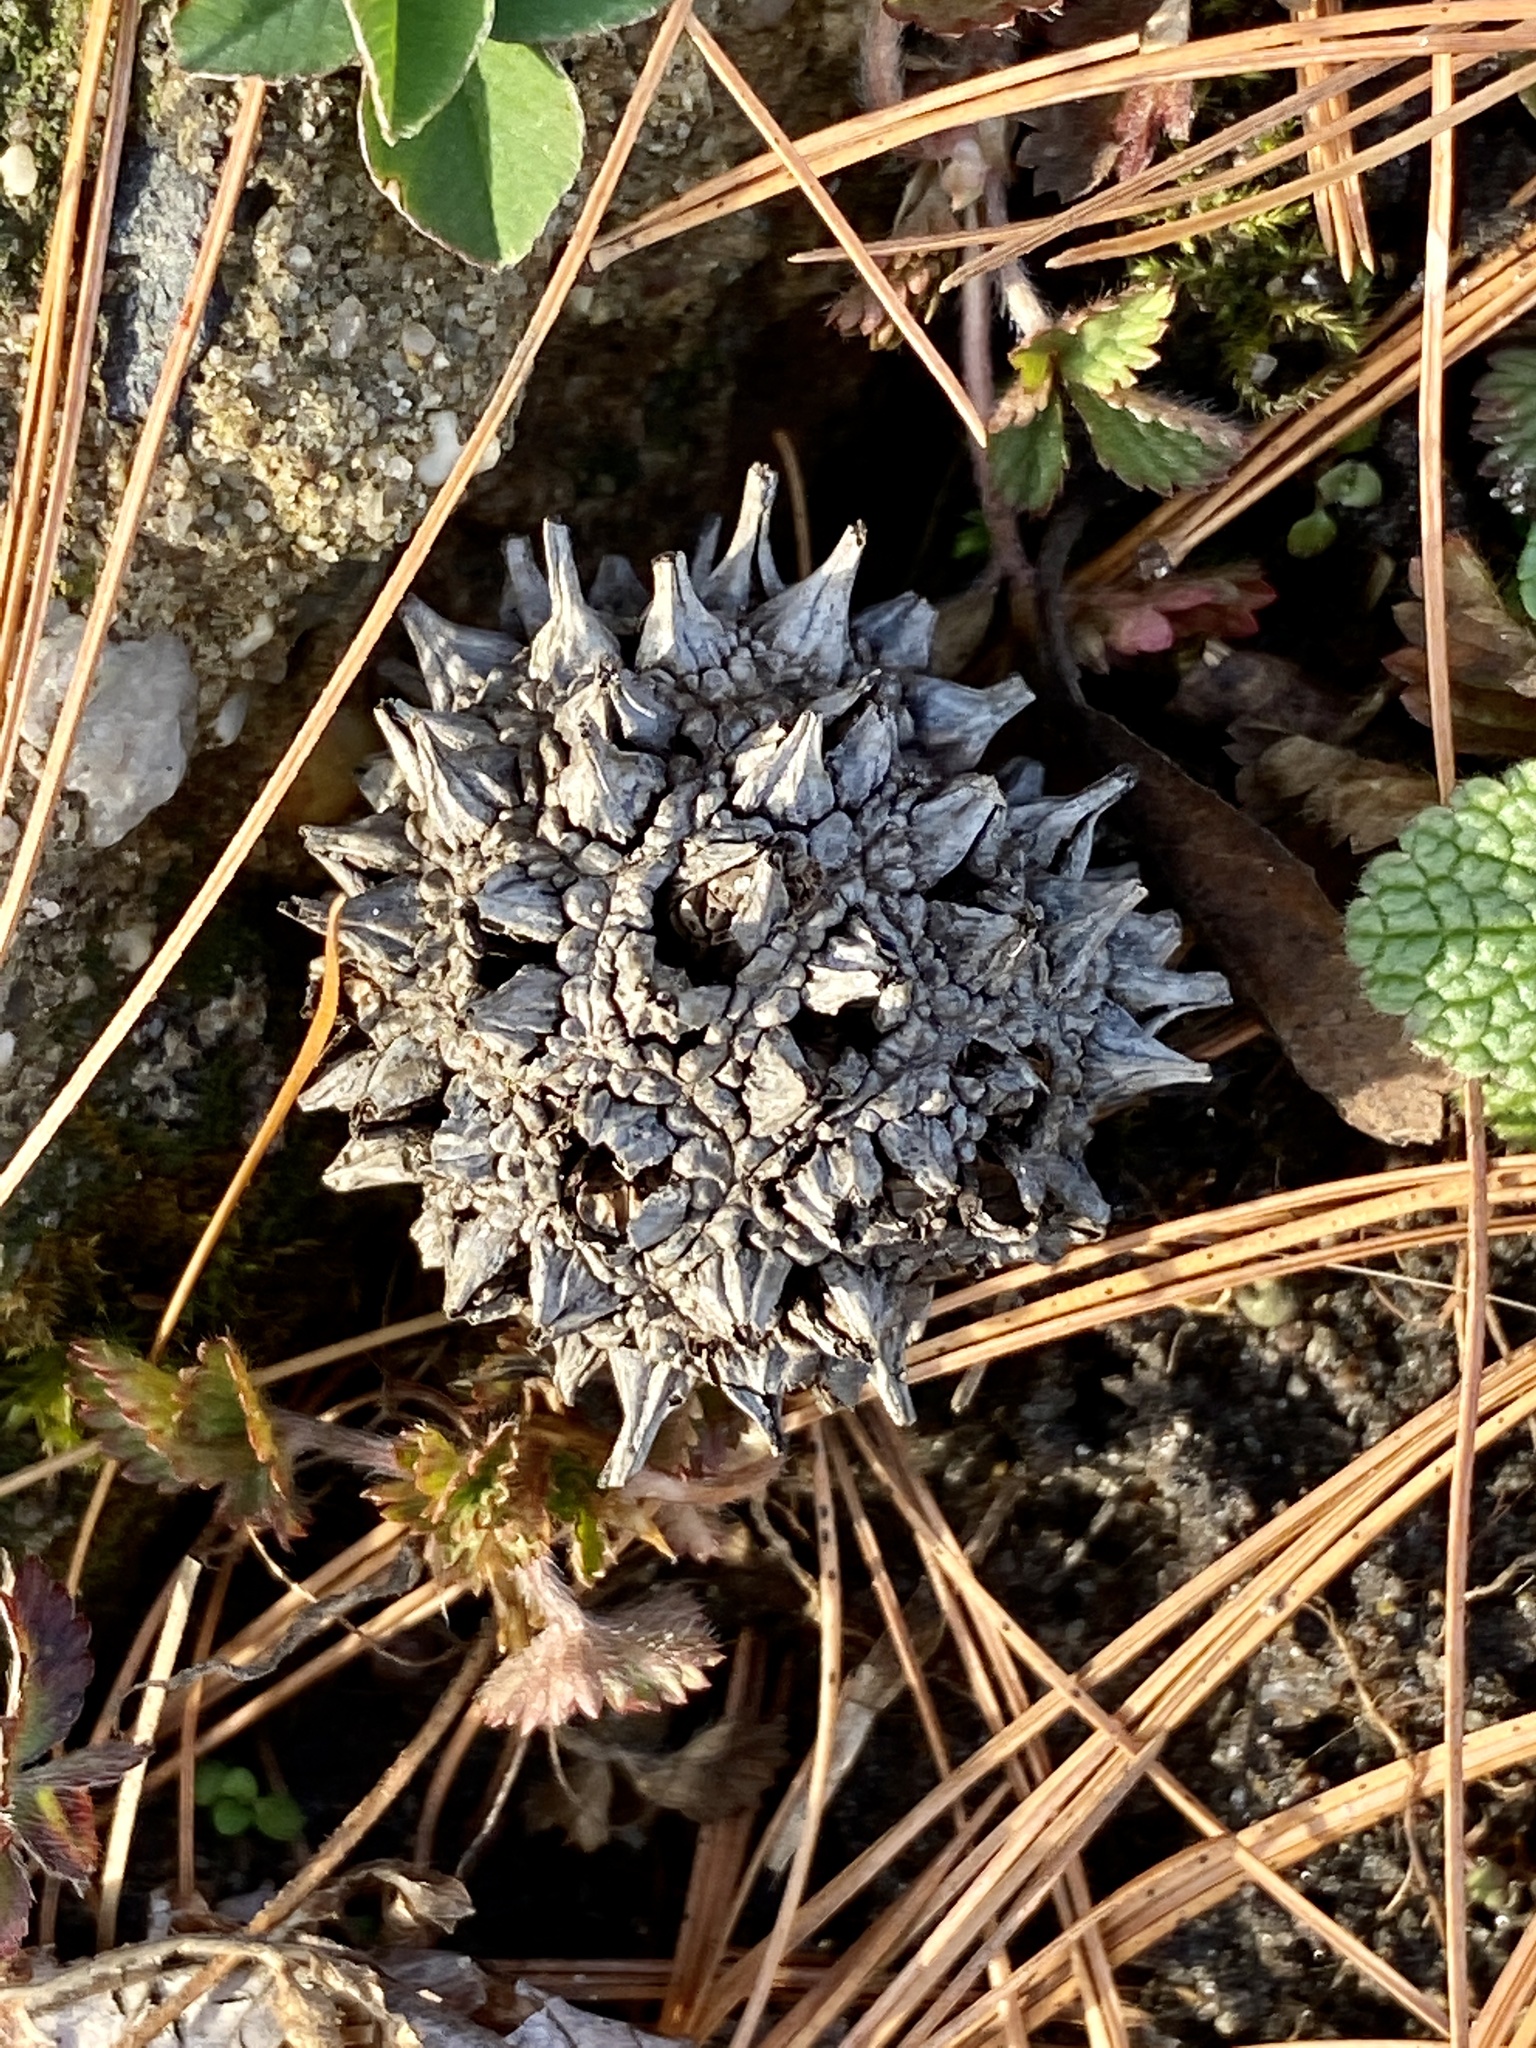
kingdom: Plantae
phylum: Tracheophyta
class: Magnoliopsida
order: Saxifragales
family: Altingiaceae
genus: Liquidambar
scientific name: Liquidambar styraciflua
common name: Sweet gum
